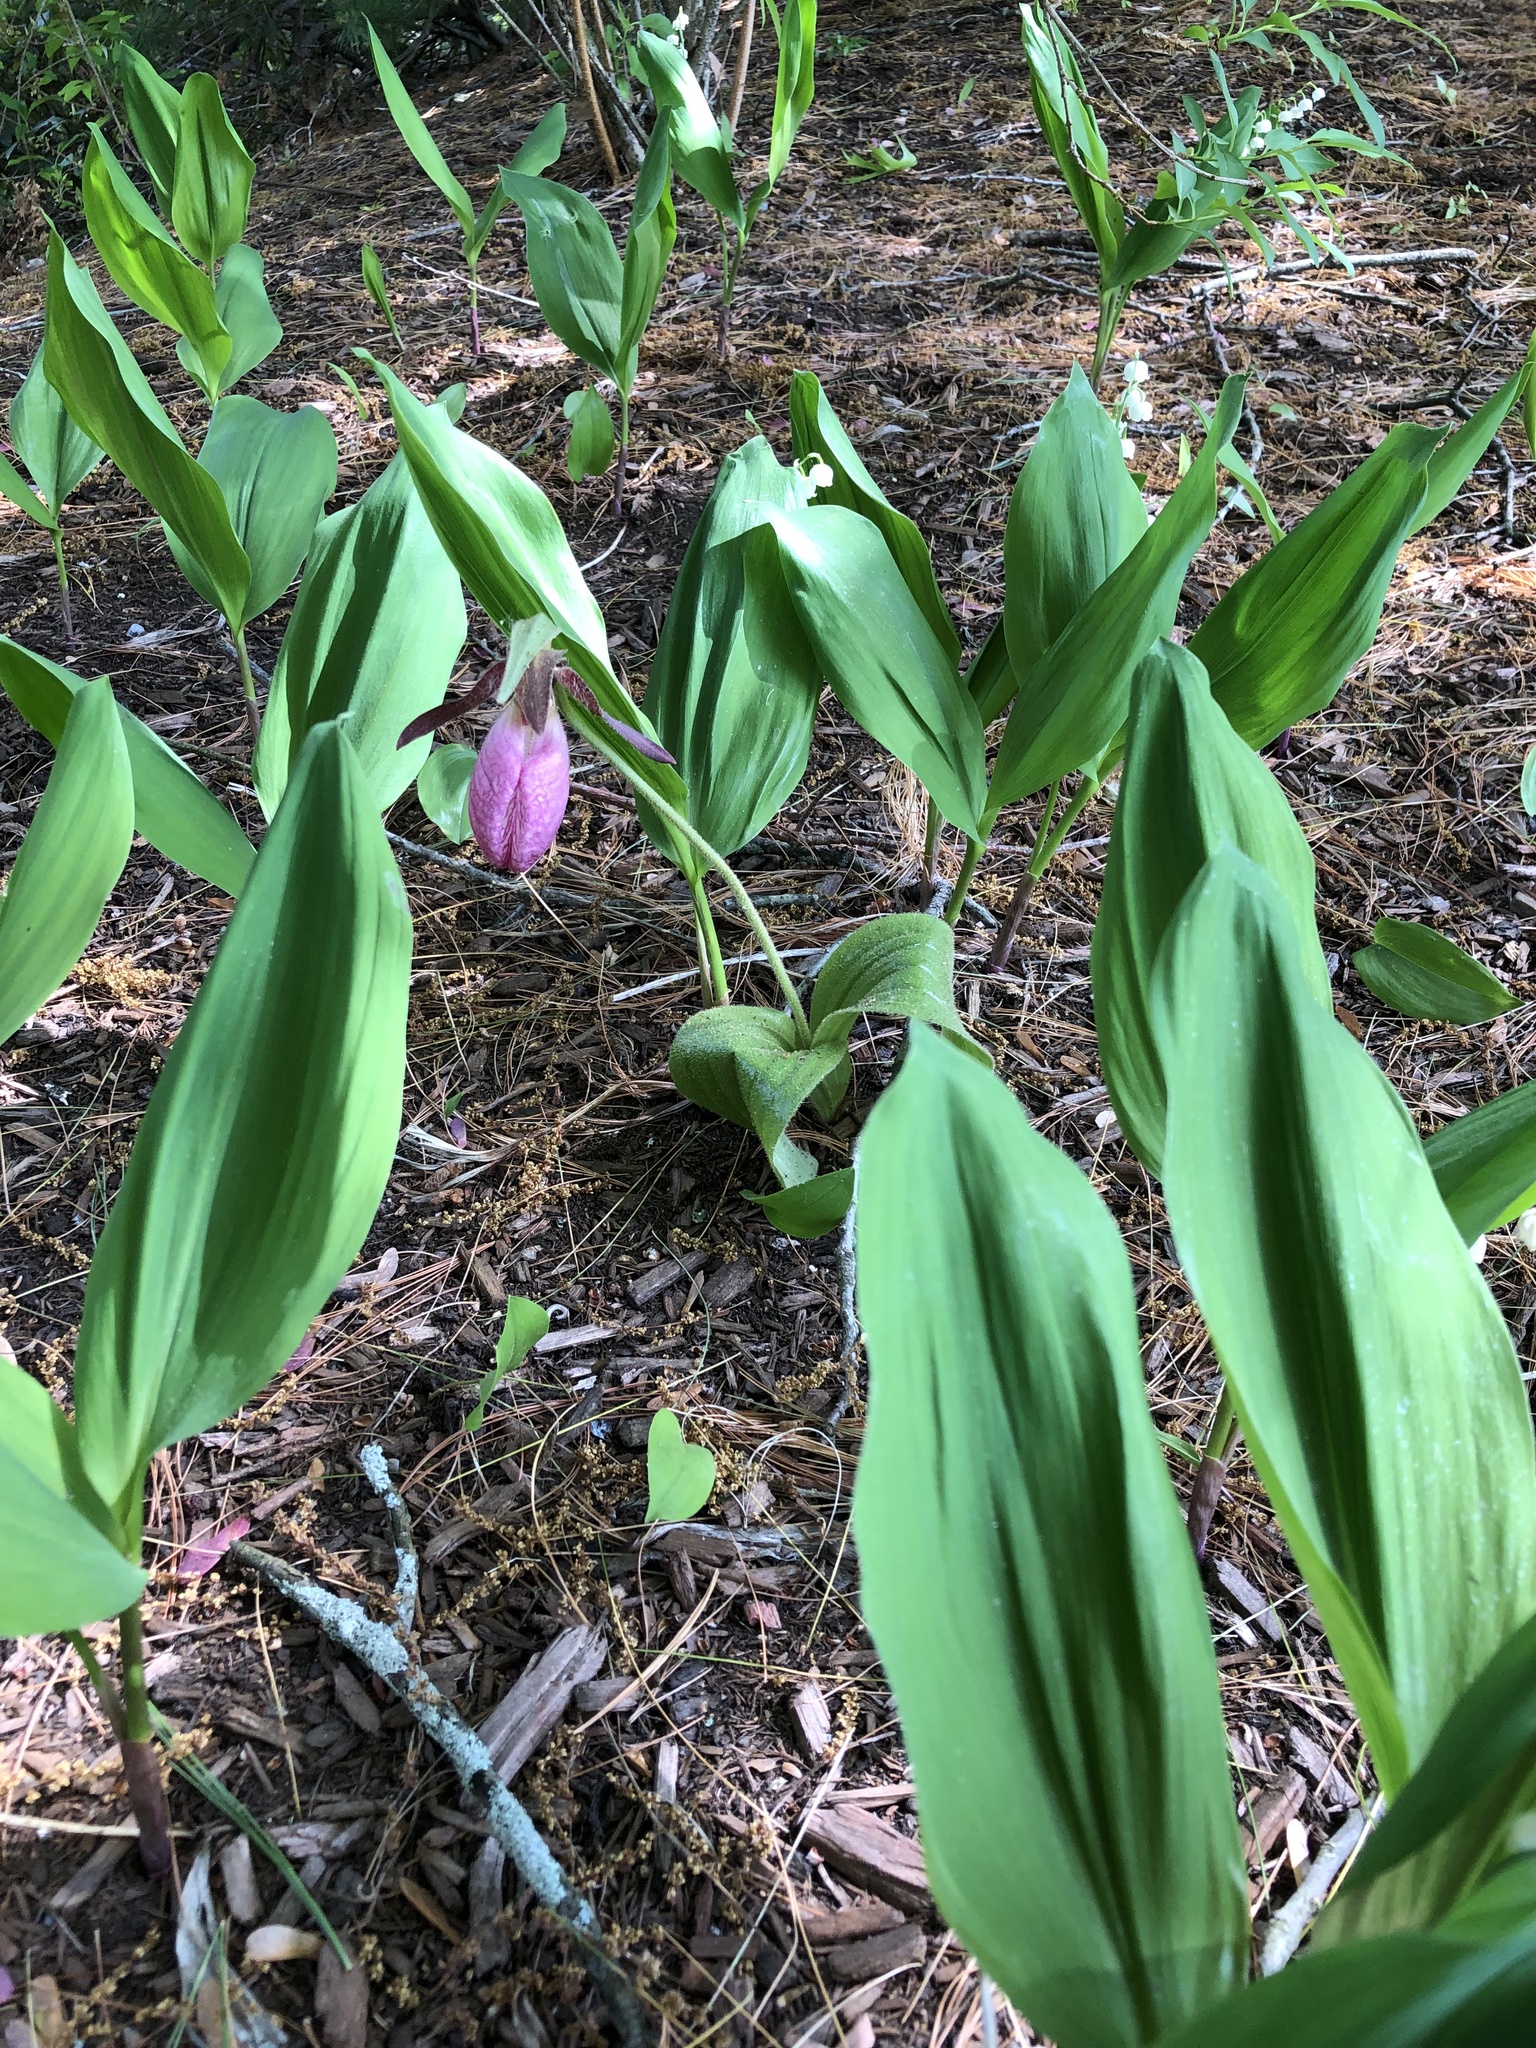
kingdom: Plantae
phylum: Tracheophyta
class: Liliopsida
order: Asparagales
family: Orchidaceae
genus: Cypripedium
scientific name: Cypripedium acaule
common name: Pink lady's-slipper
